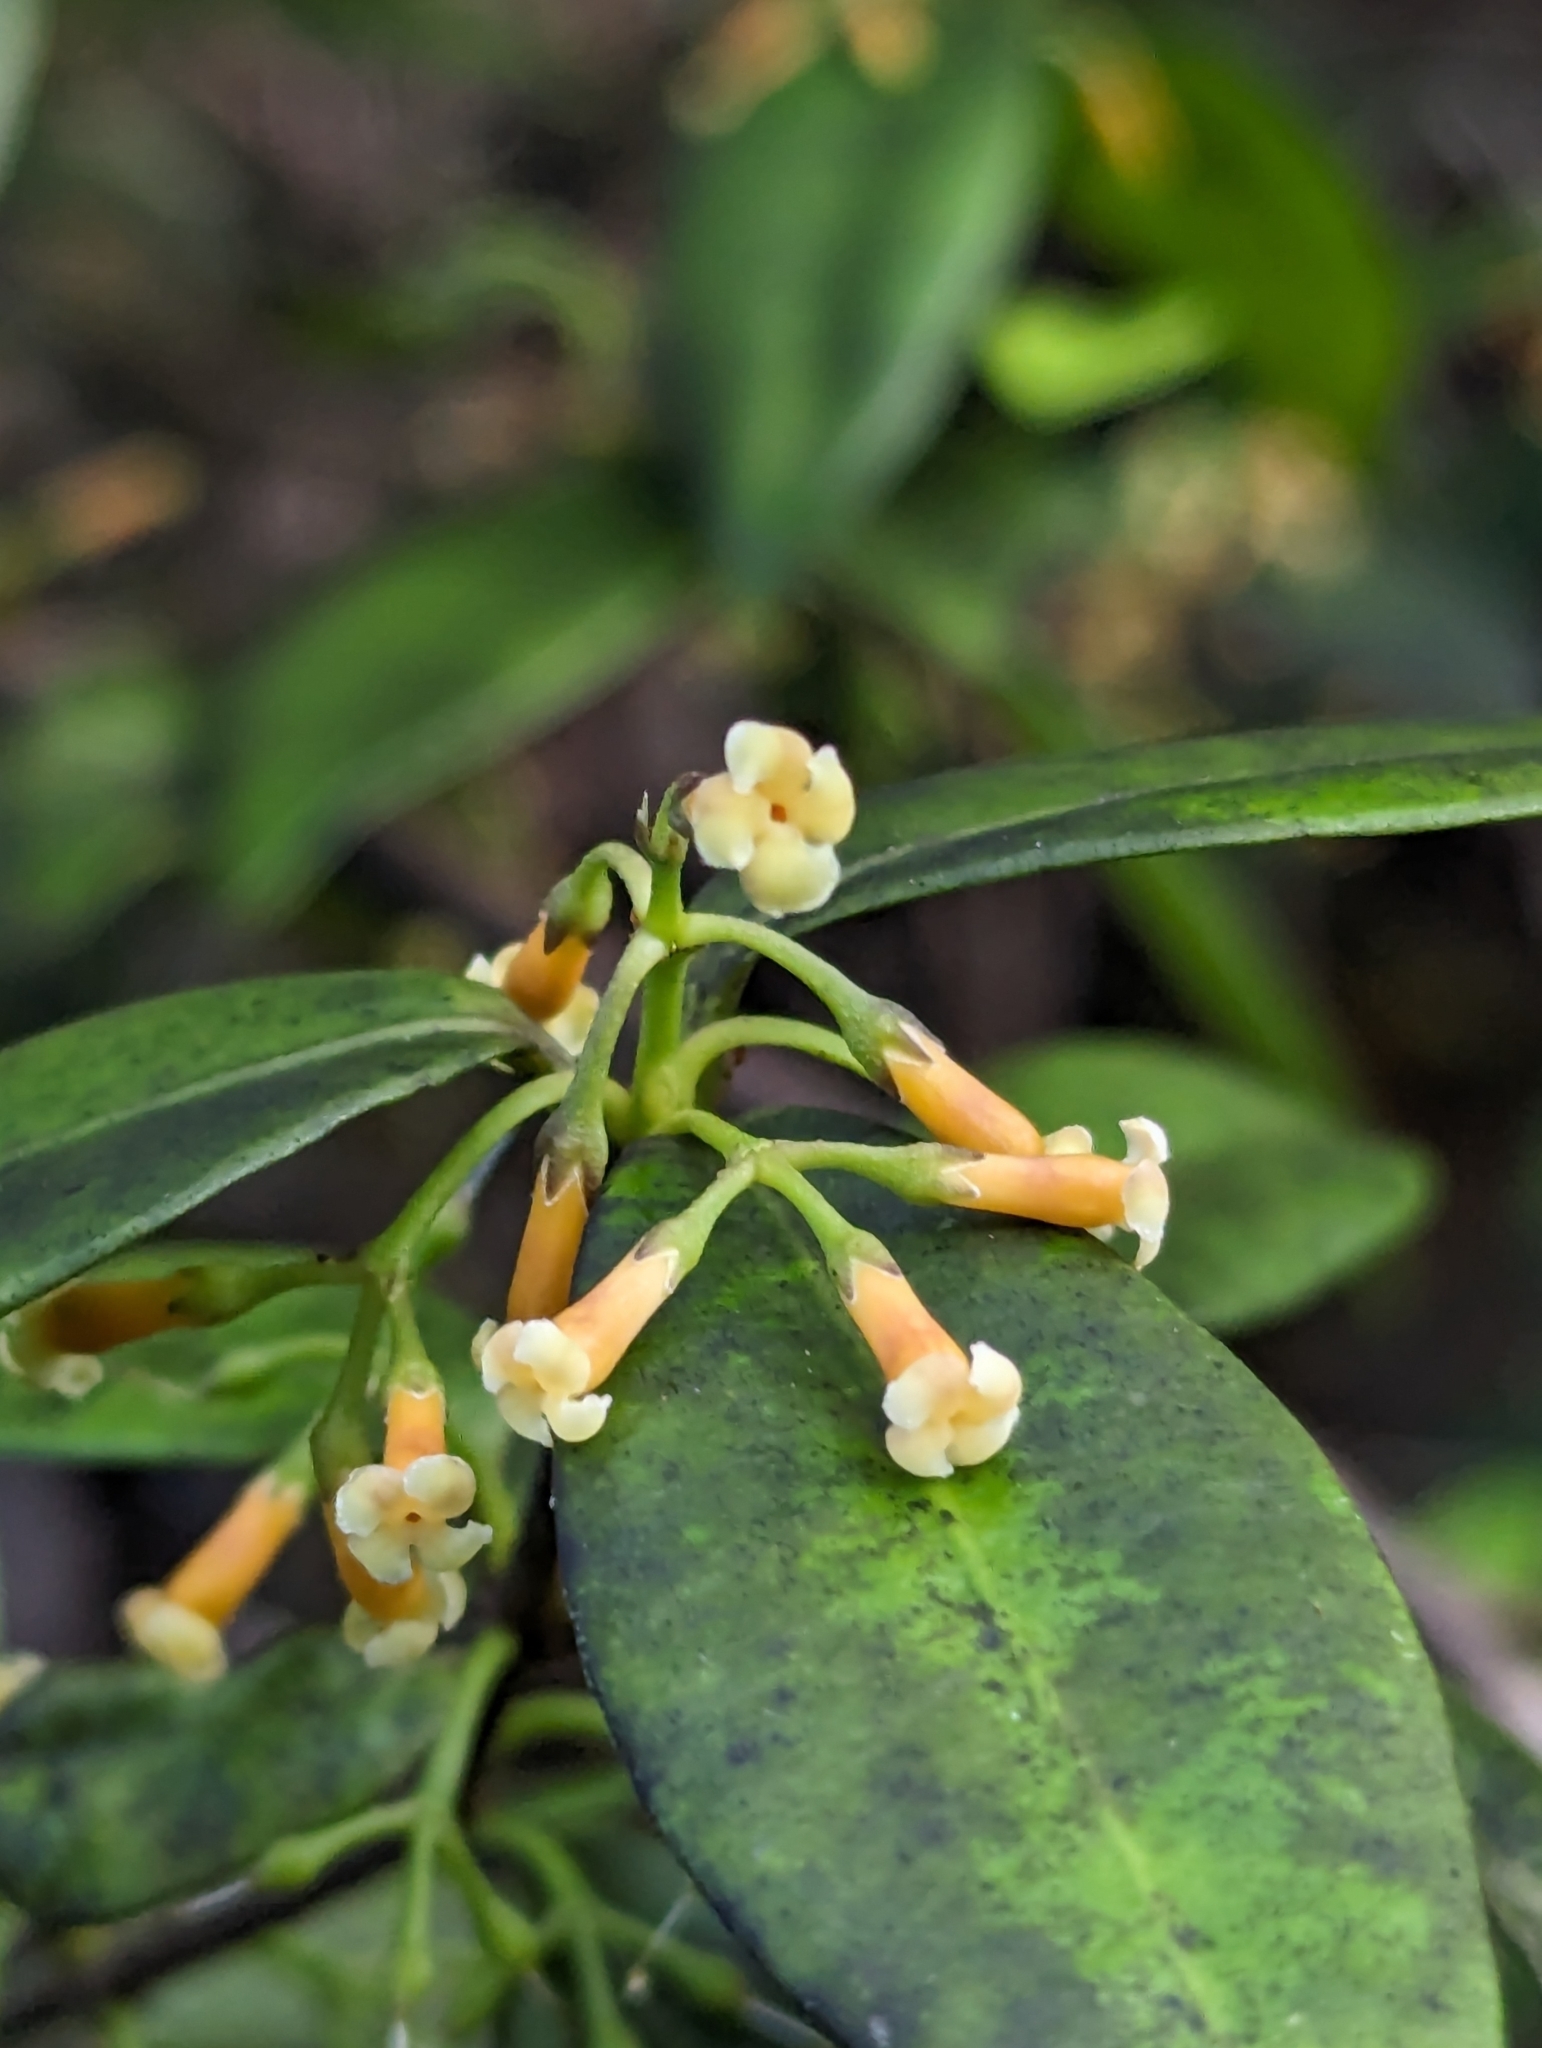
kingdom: Plantae
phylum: Tracheophyta
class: Magnoliopsida
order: Gentianales
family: Apocynaceae
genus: Alyxia
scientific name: Alyxia stellata
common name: Maile
